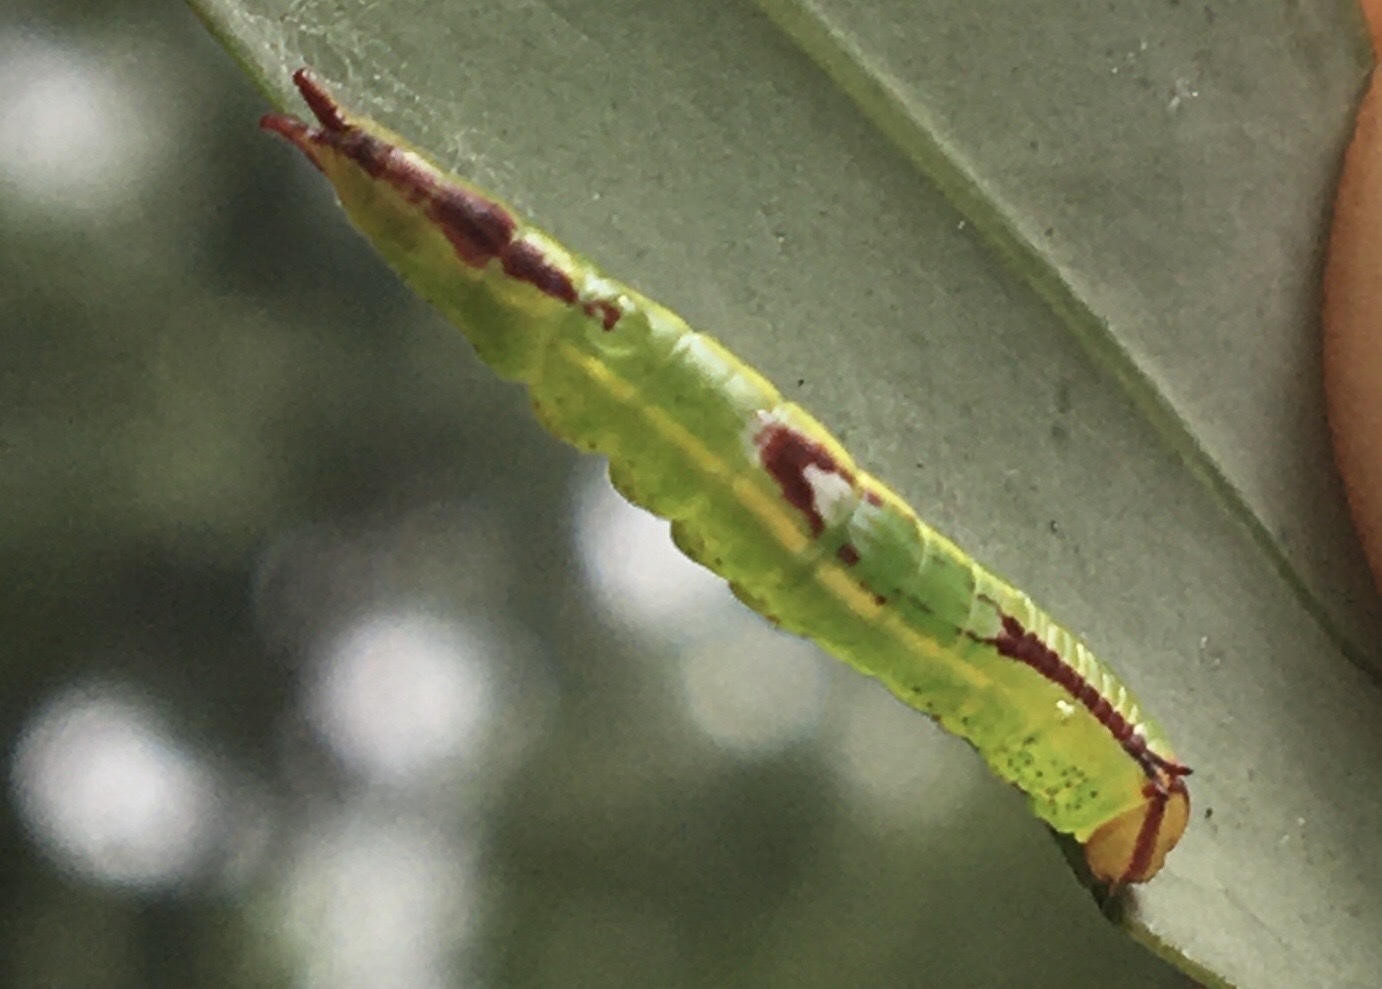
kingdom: Animalia
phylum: Arthropoda
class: Insecta
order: Lepidoptera
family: Notodontidae
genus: Disphragis
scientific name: Disphragis Cecrita guttivitta
